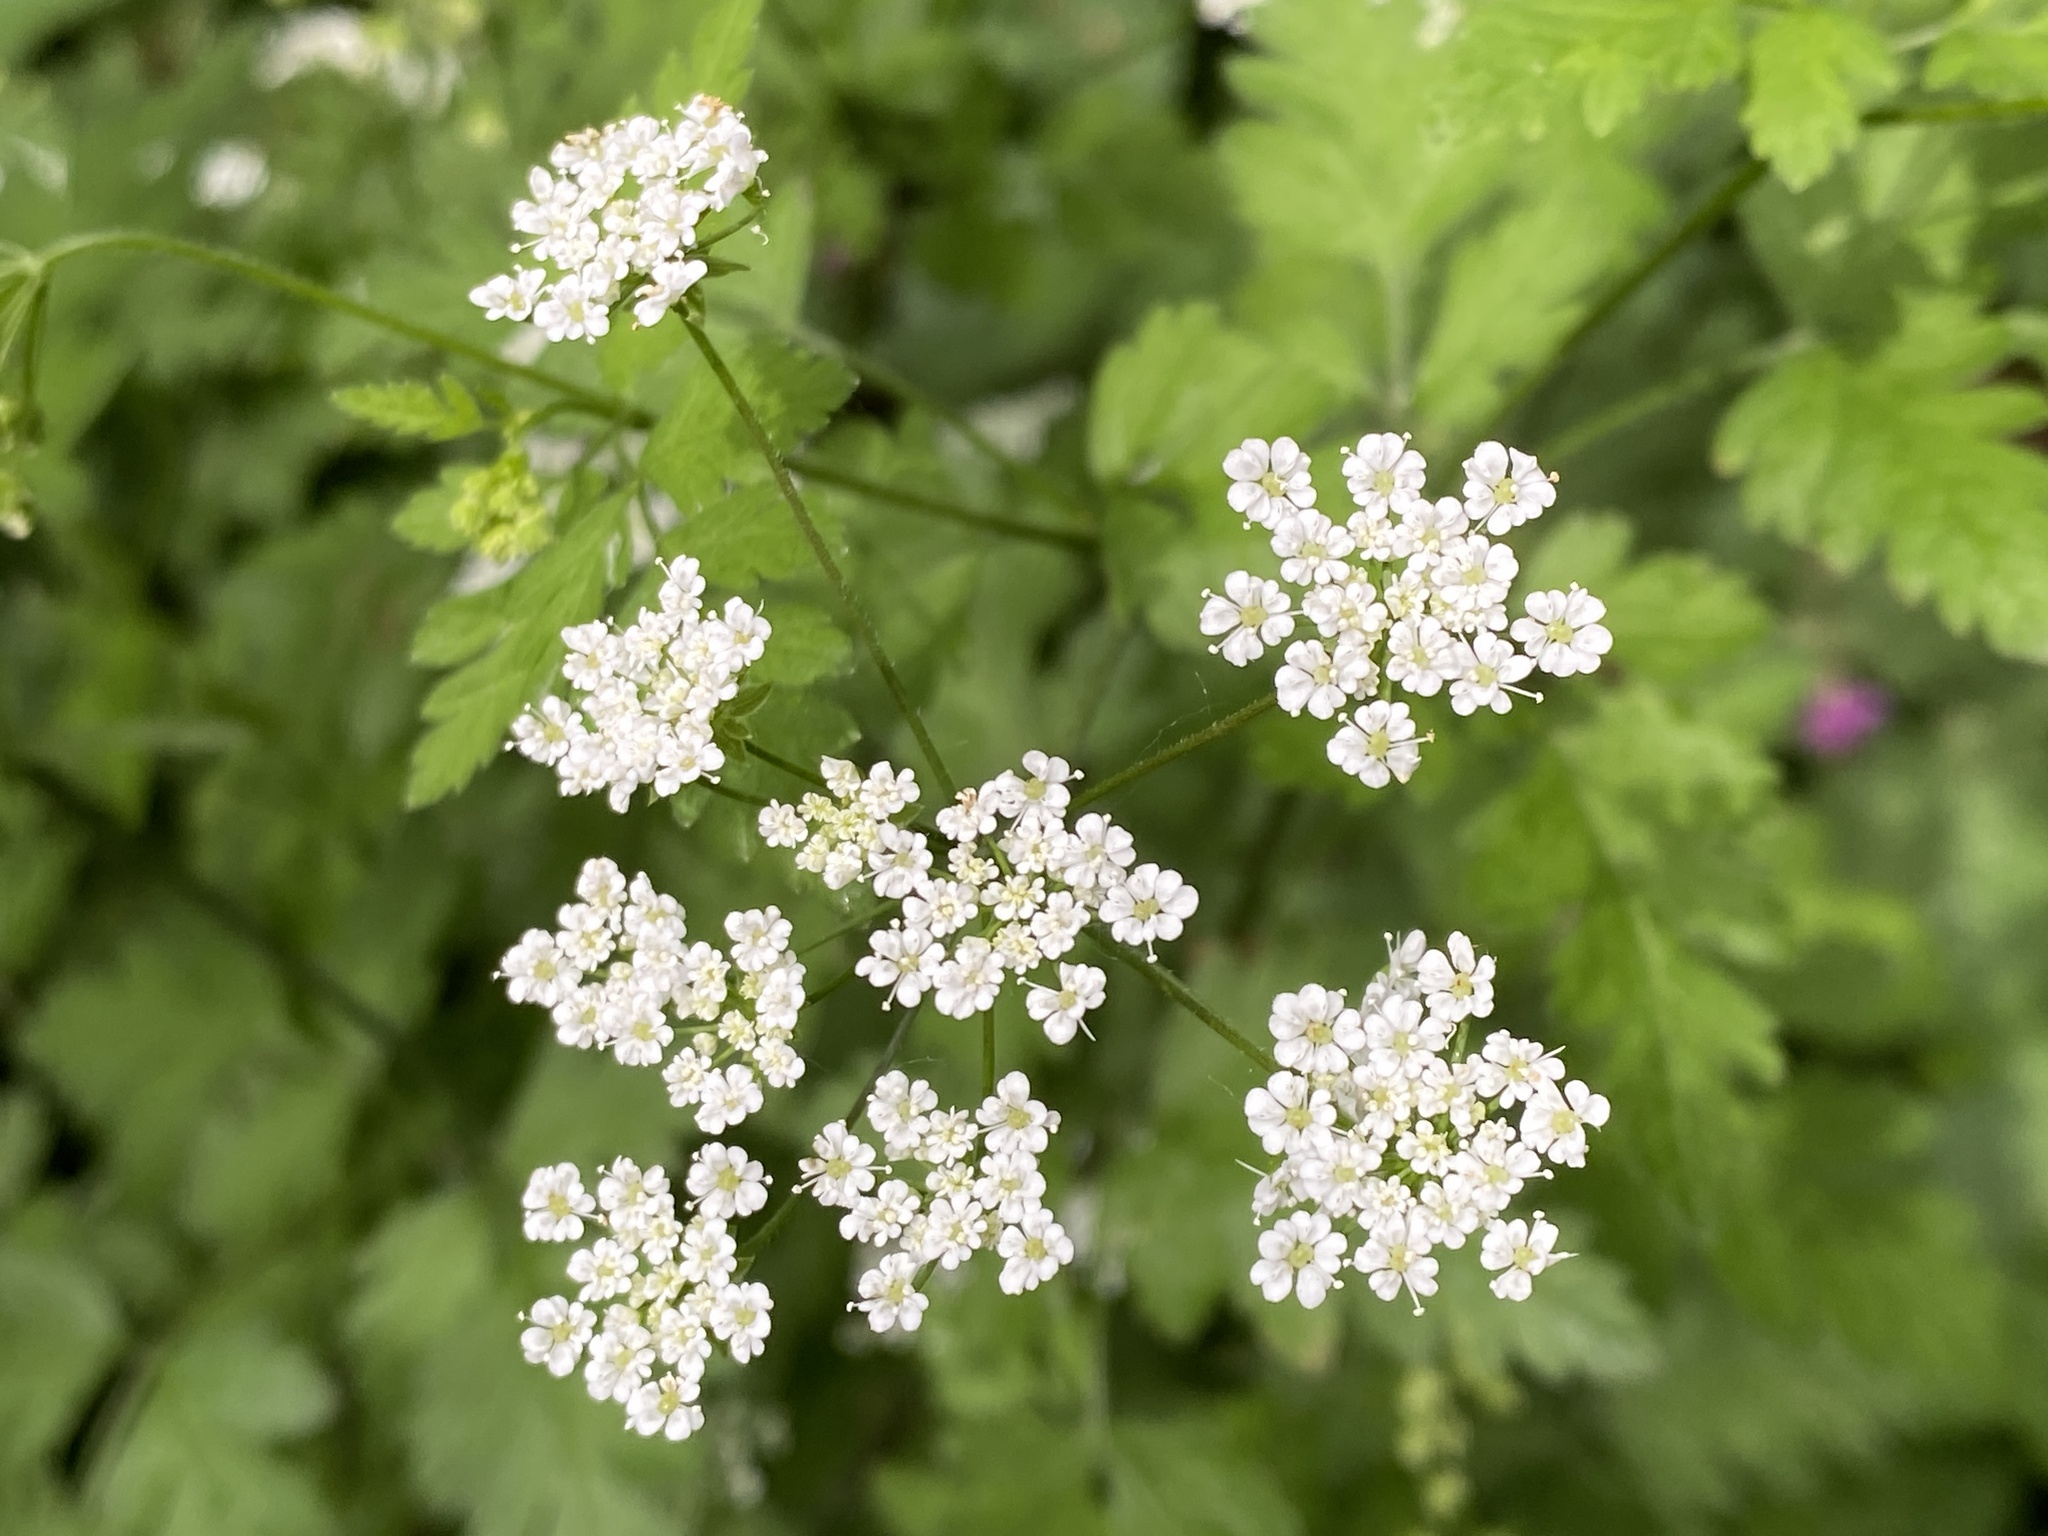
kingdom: Plantae
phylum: Tracheophyta
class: Magnoliopsida
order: Apiales
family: Apiaceae
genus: Chaerophyllum
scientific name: Chaerophyllum temulum
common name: Rough chervil
